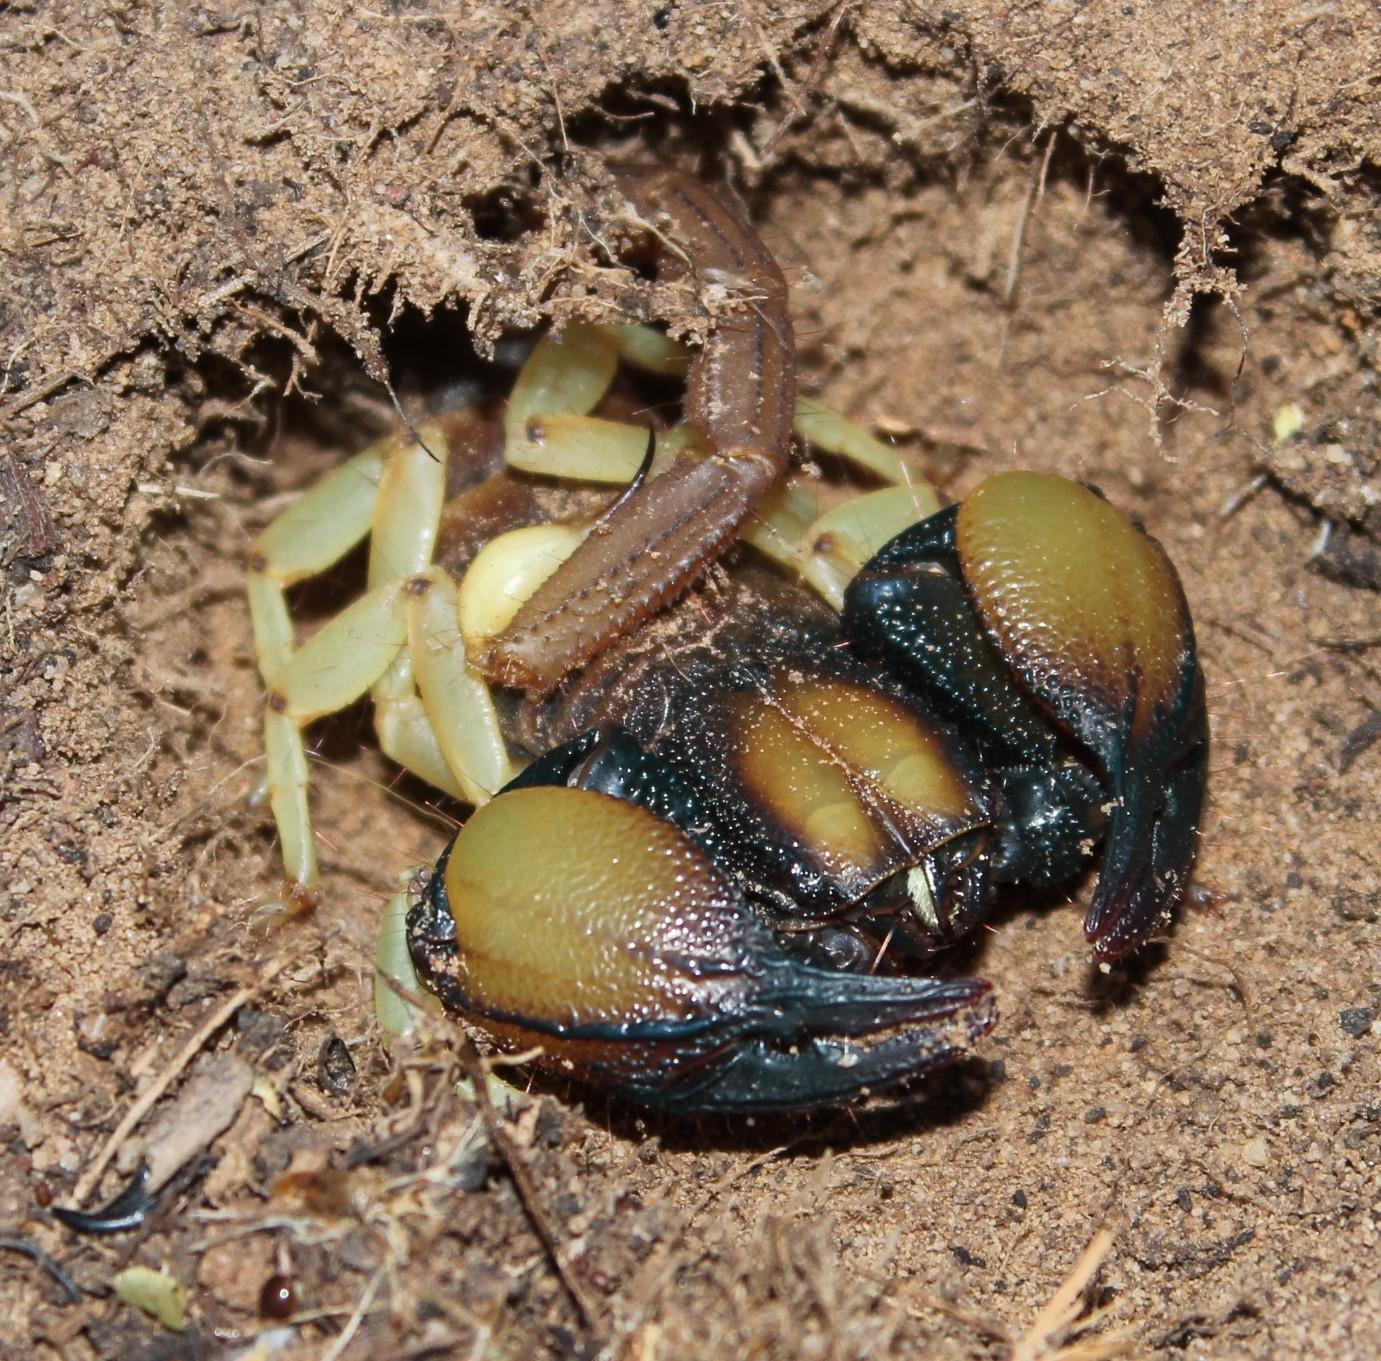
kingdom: Animalia
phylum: Arthropoda
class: Arachnida
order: Scorpiones
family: Scorpionidae
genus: Opistophthalmus
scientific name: Opistophthalmus pallipes
